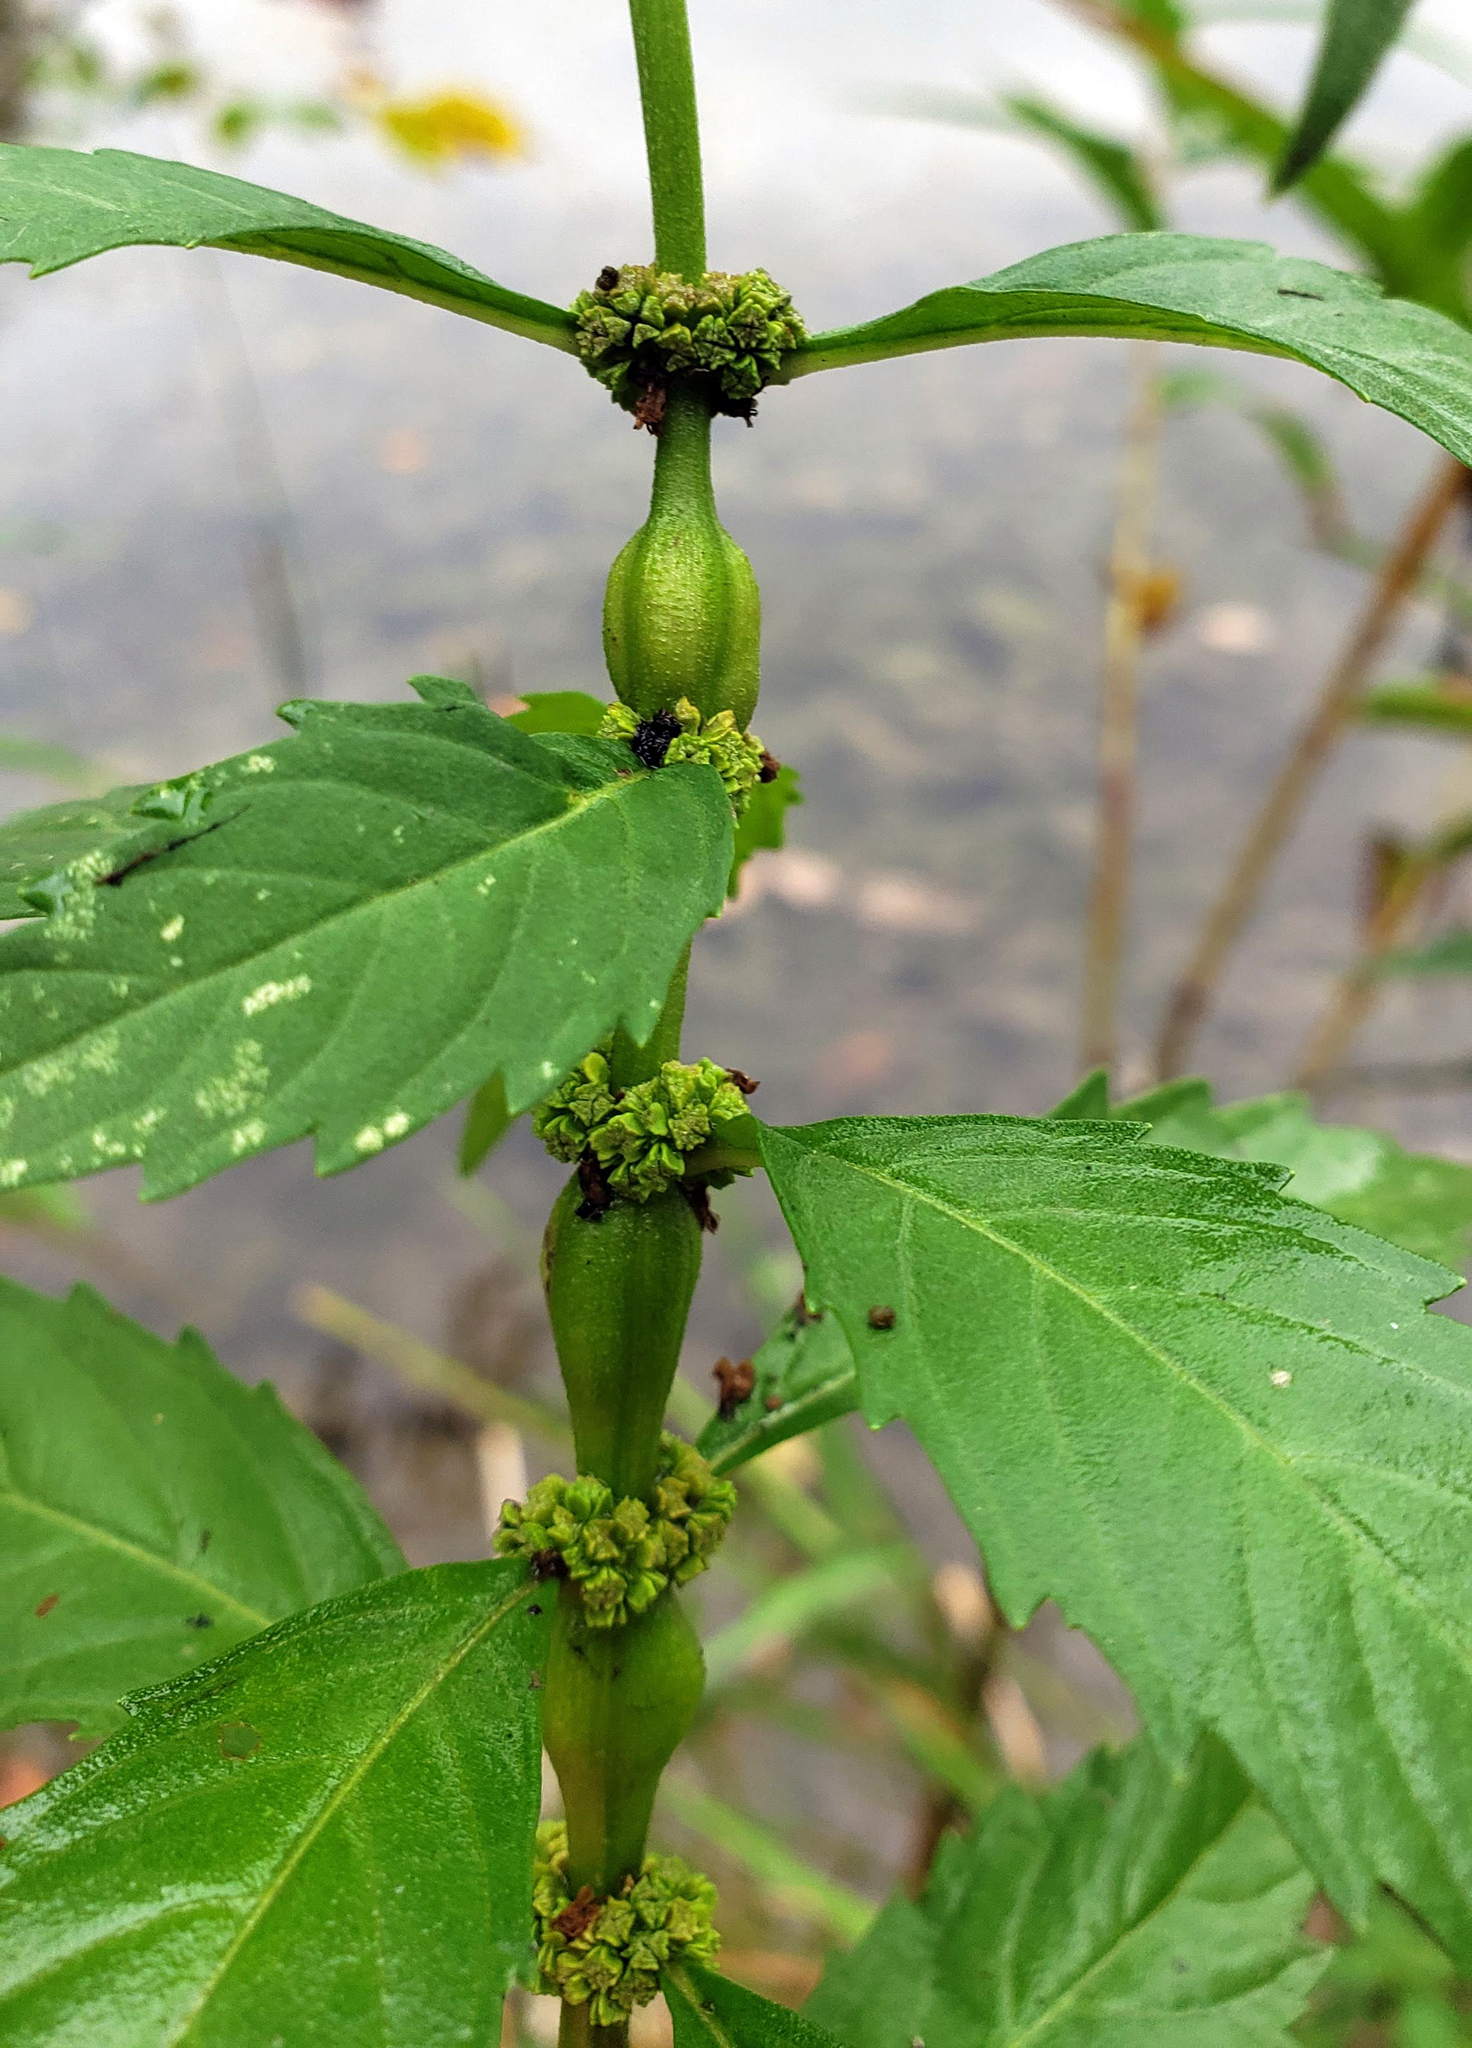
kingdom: Animalia
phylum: Arthropoda
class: Insecta
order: Diptera
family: Cecidomyiidae
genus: Neolasioptera
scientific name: Neolasioptera lycopi
